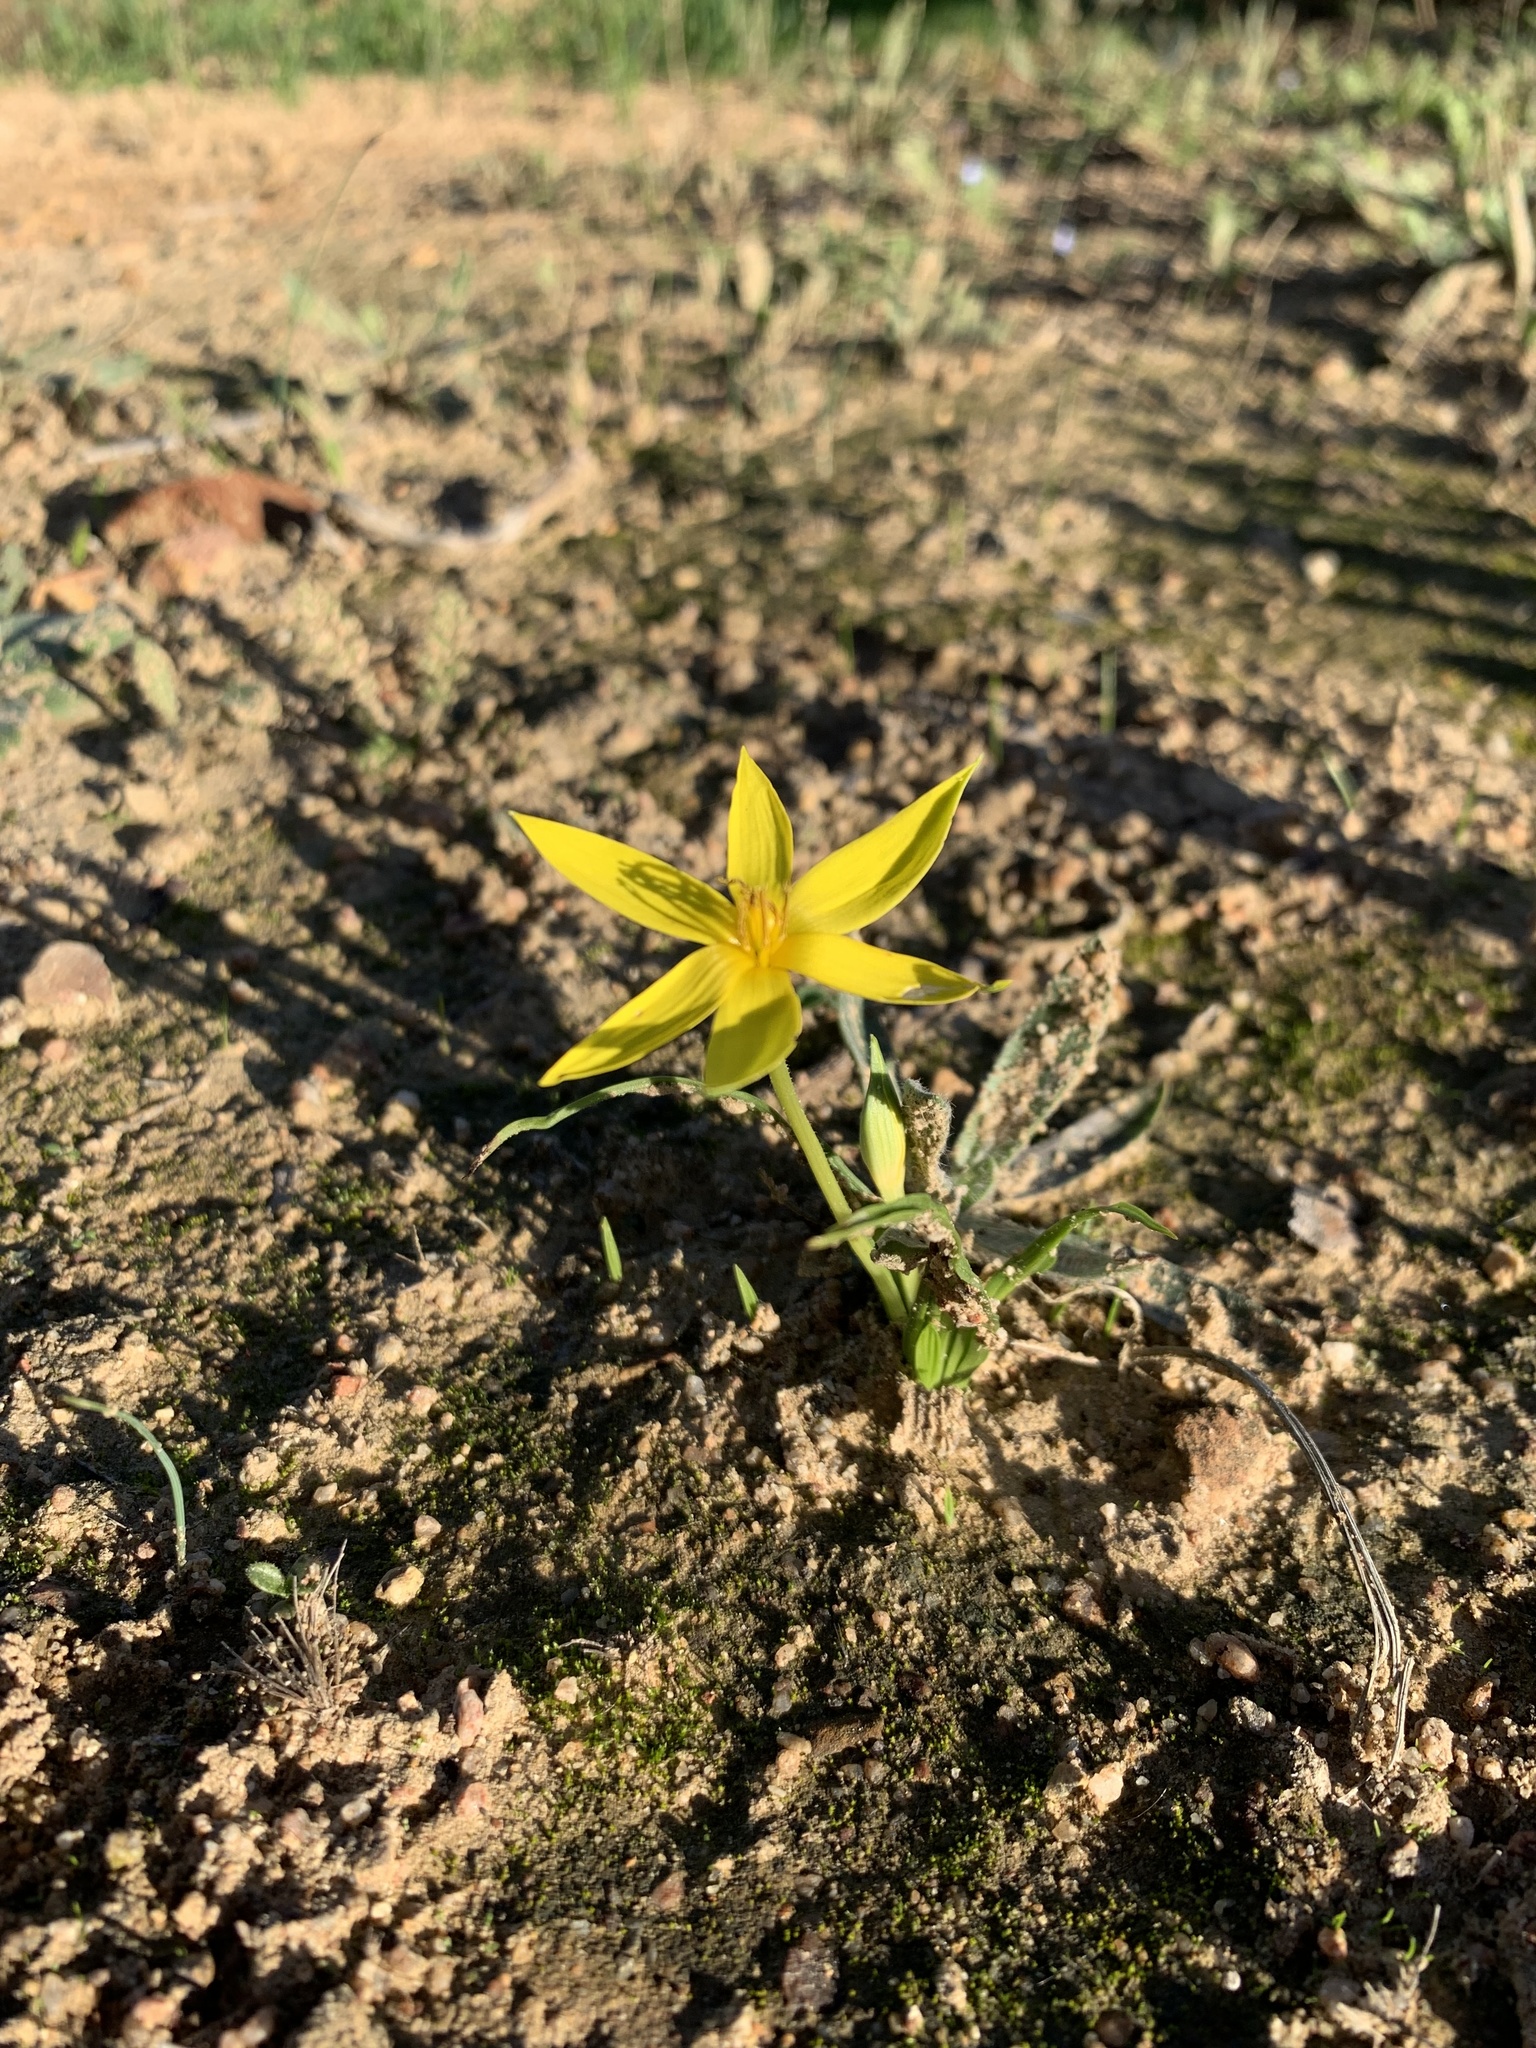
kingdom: Plantae
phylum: Tracheophyta
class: Liliopsida
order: Asparagales
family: Hypoxidaceae
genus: Empodium
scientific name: Empodium plicatum
